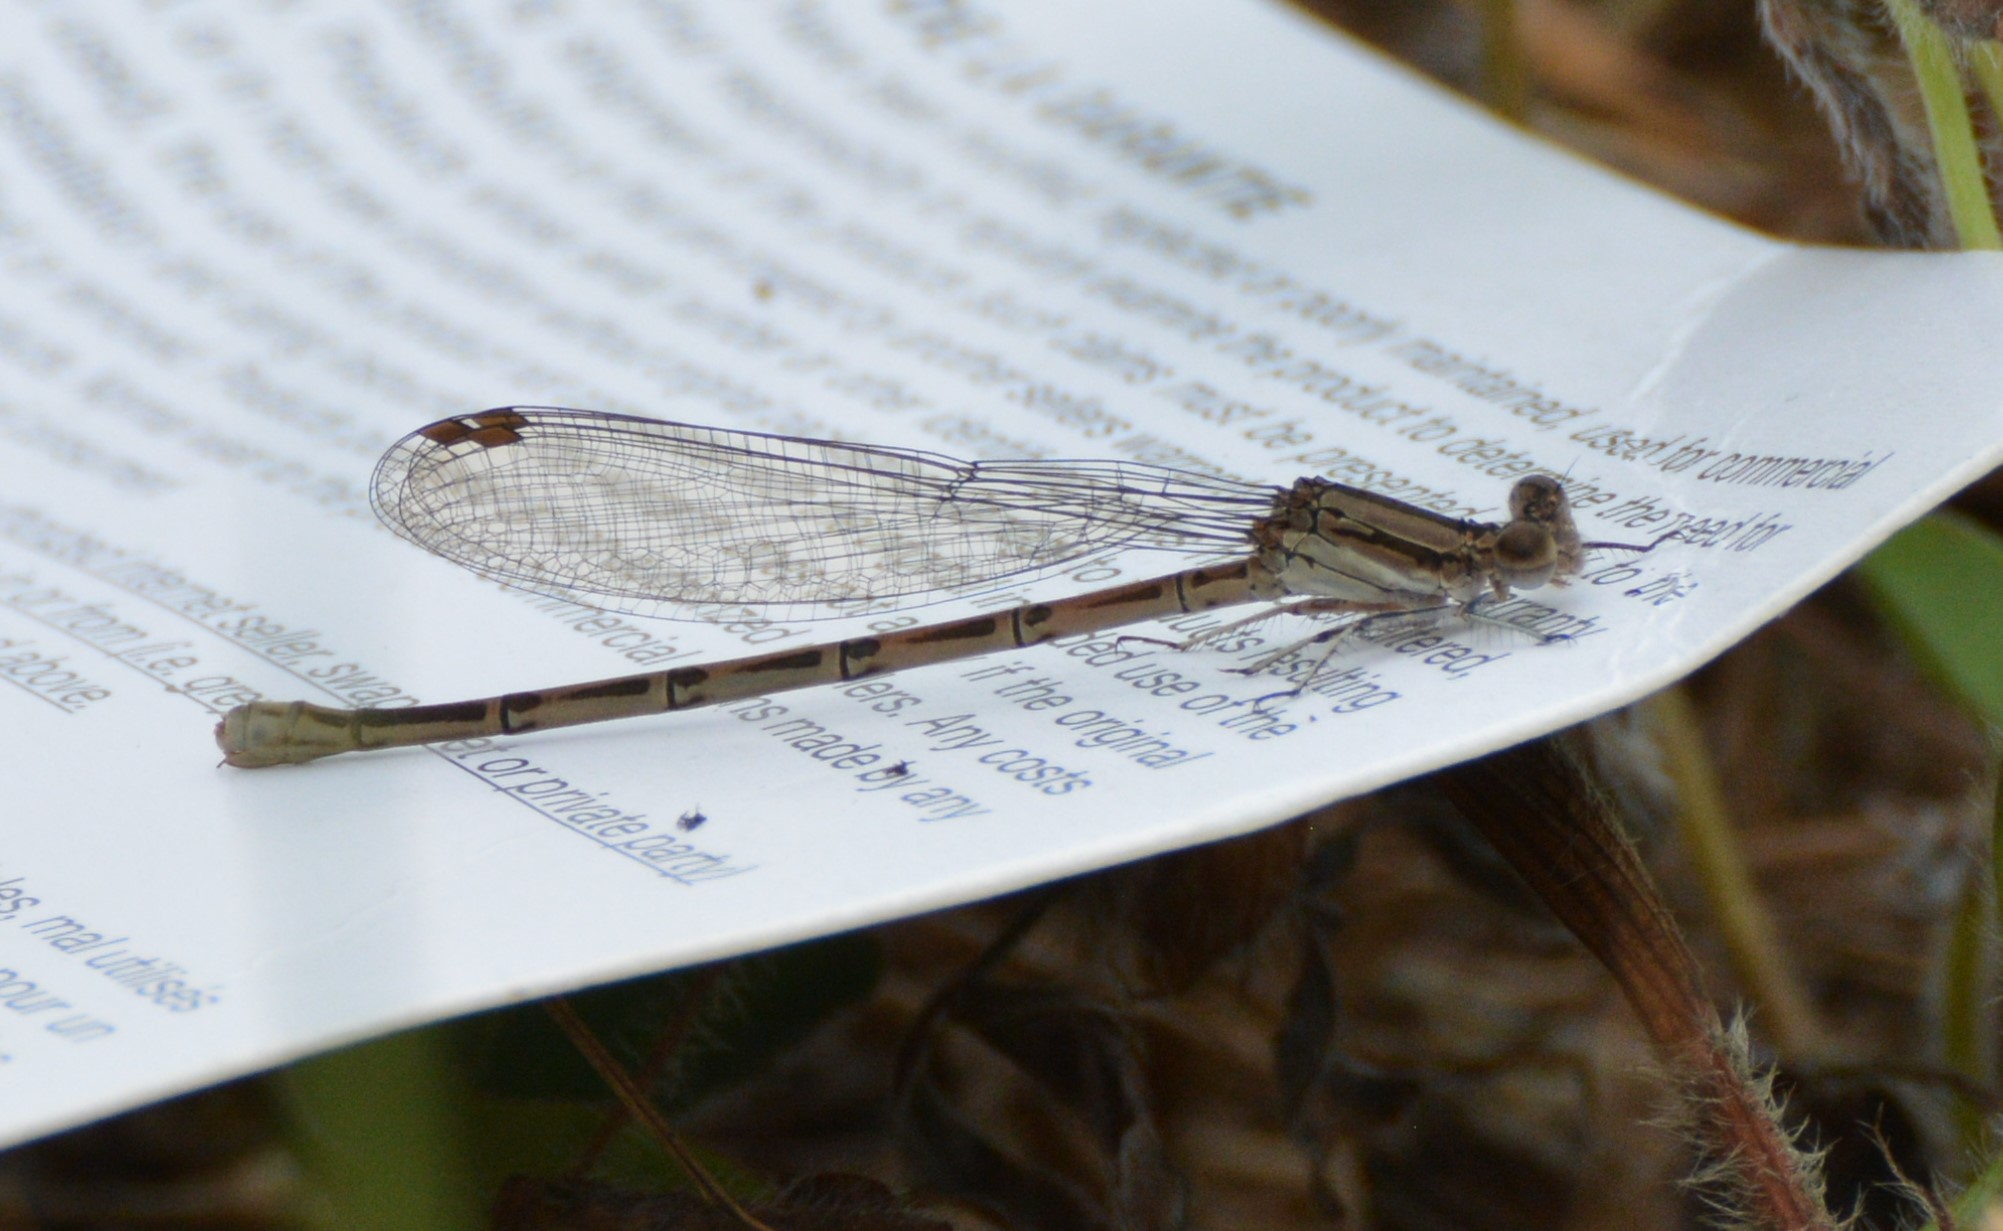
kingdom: Animalia
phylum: Arthropoda
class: Insecta
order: Odonata
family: Coenagrionidae
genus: Argia
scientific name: Argia fumipennis
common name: Variable dancer
